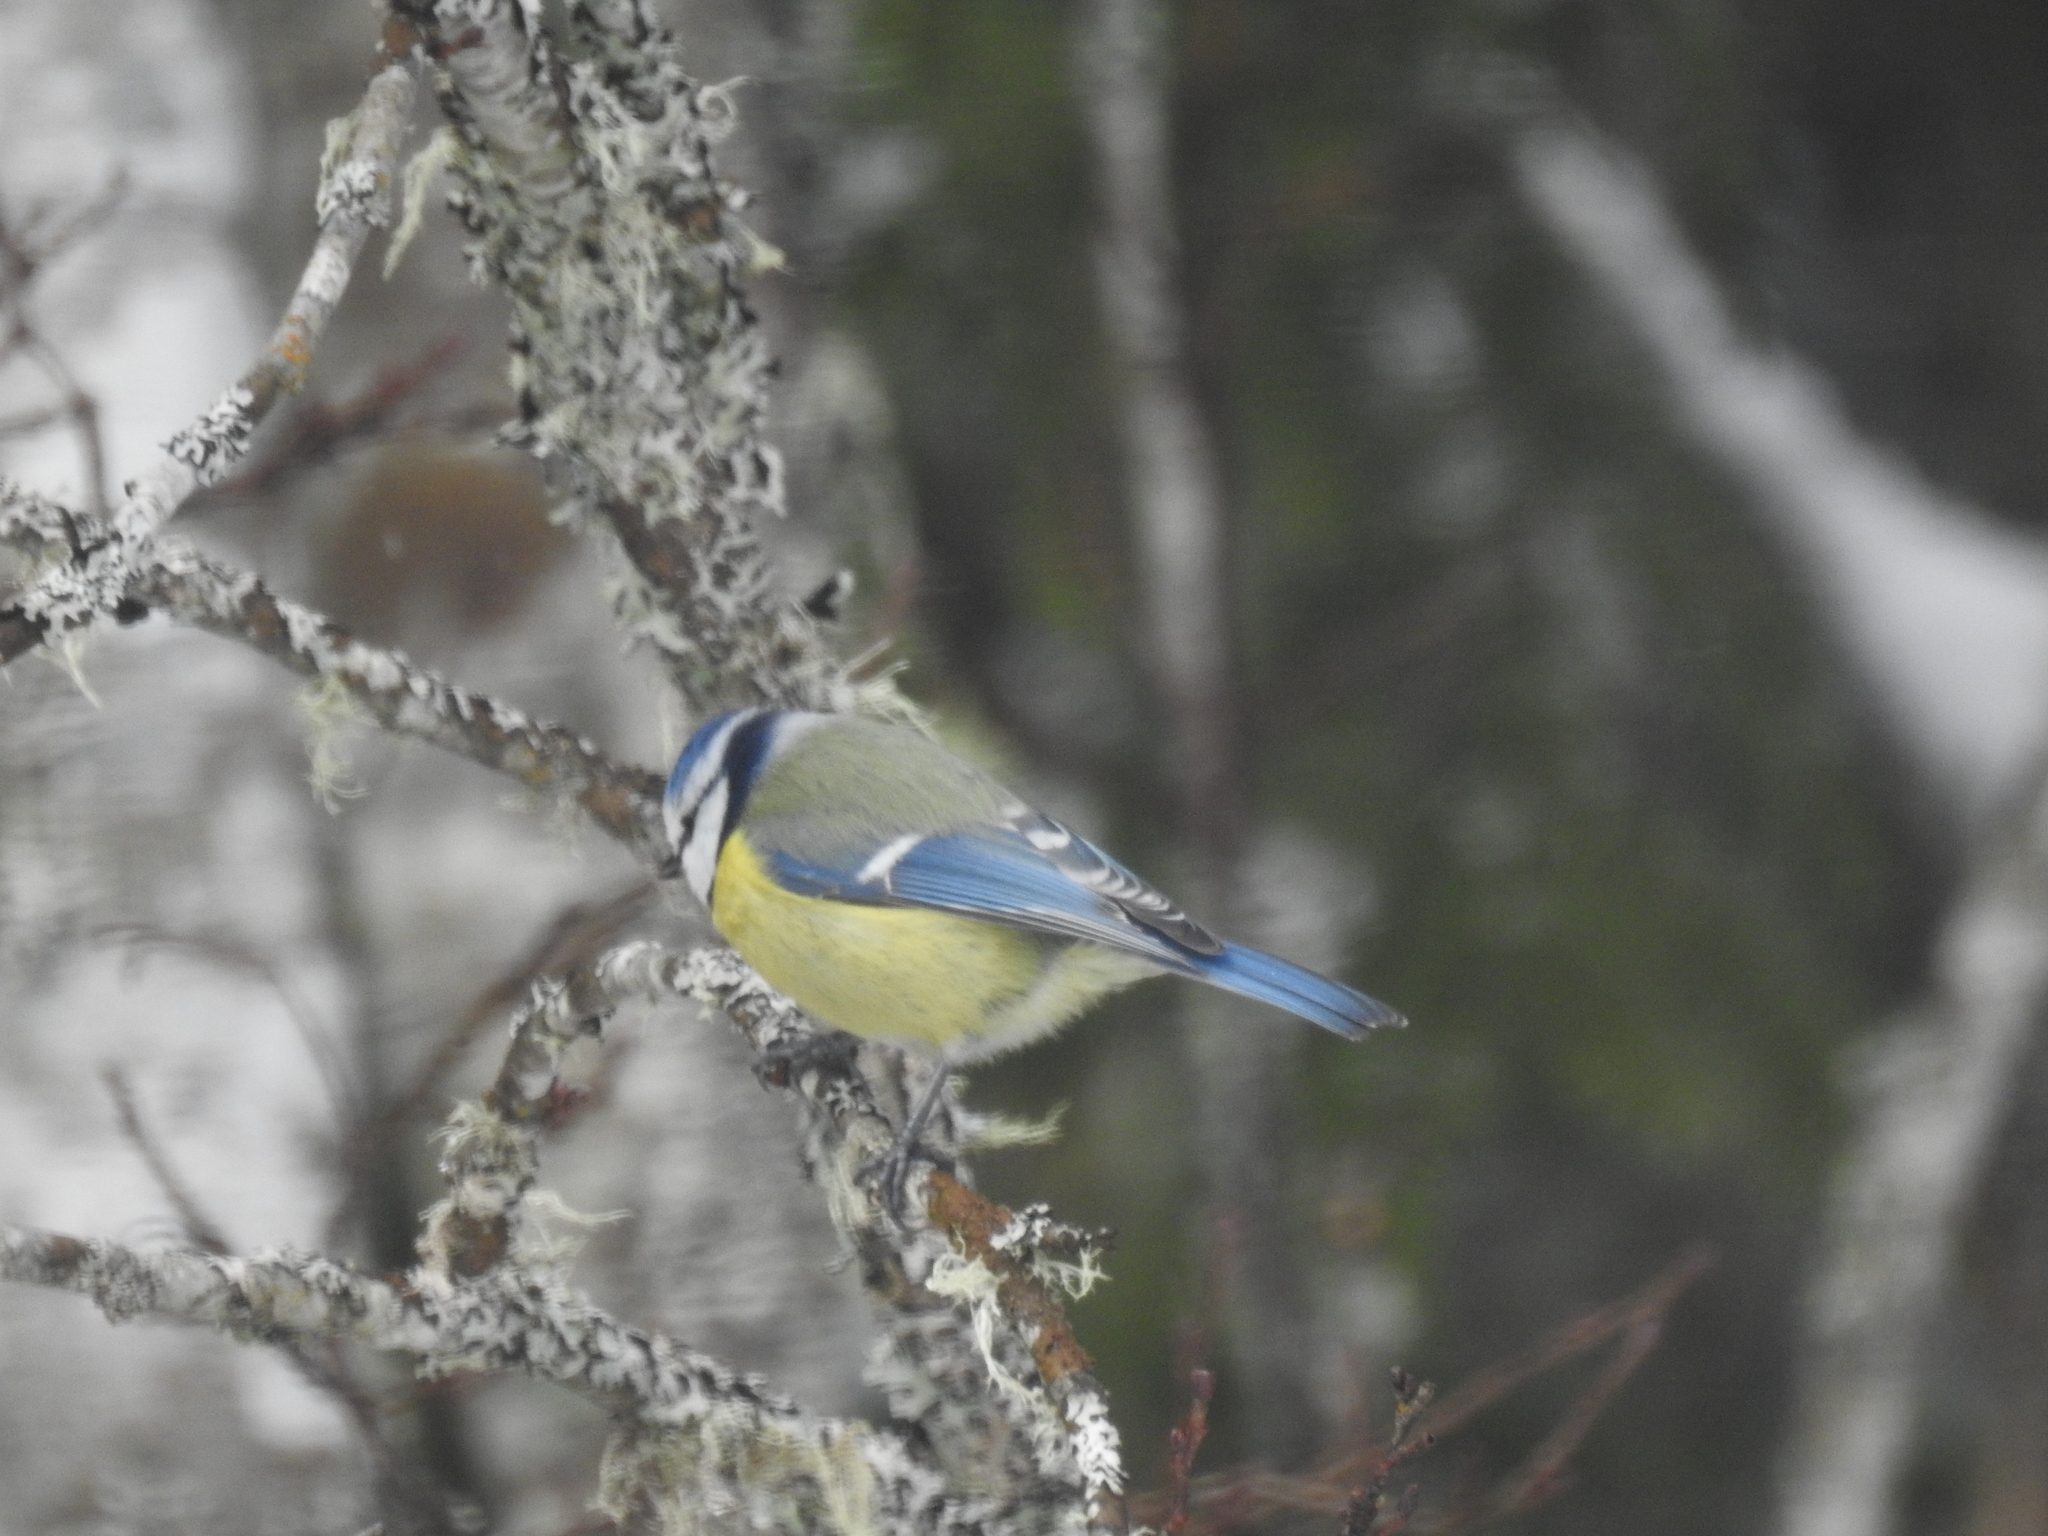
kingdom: Animalia
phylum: Chordata
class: Aves
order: Passeriformes
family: Paridae
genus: Cyanistes
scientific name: Cyanistes caeruleus
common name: Eurasian blue tit
